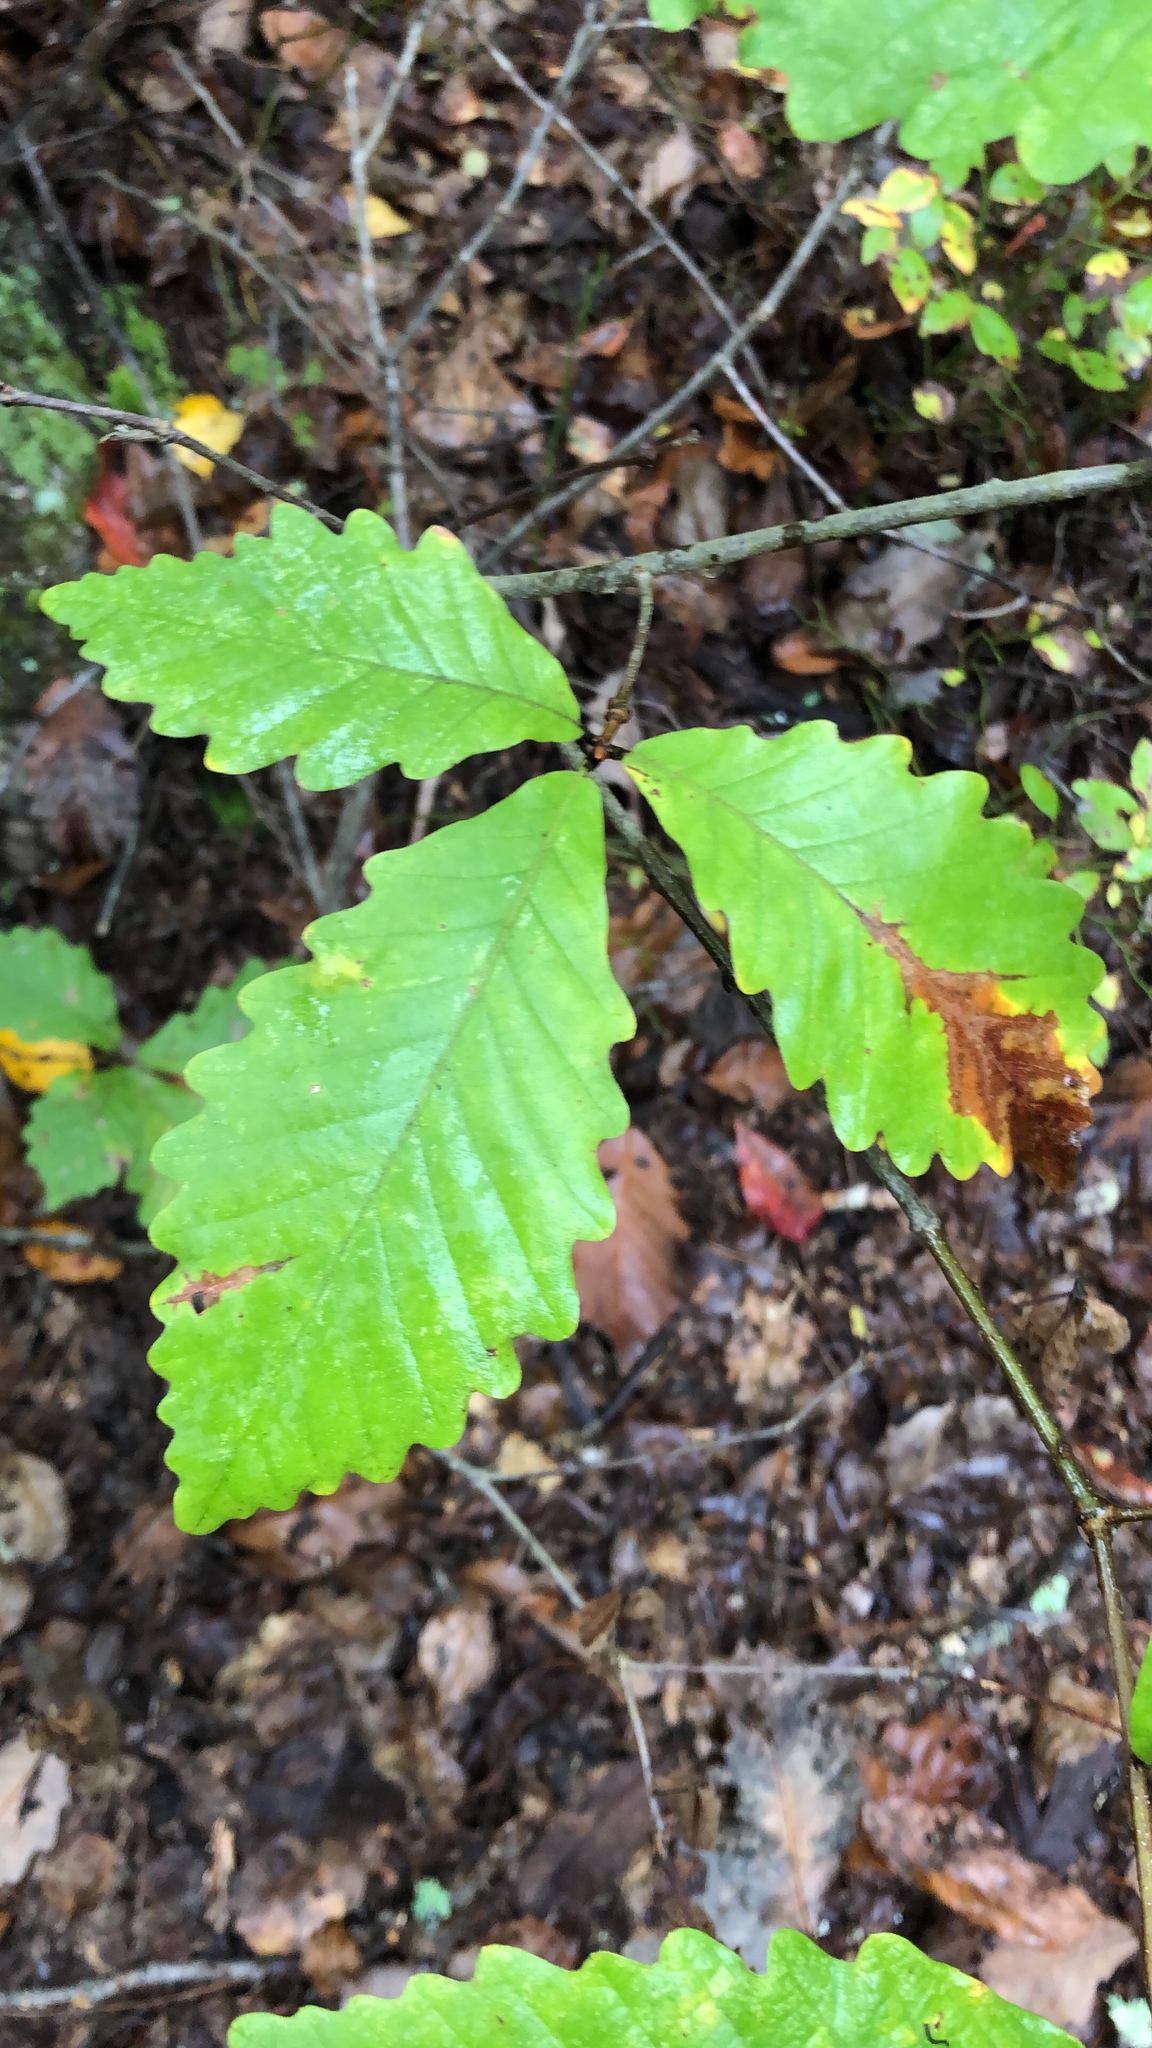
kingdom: Plantae
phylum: Tracheophyta
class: Magnoliopsida
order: Fagales
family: Fagaceae
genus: Quercus
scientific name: Quercus montana
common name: Chestnut oak
